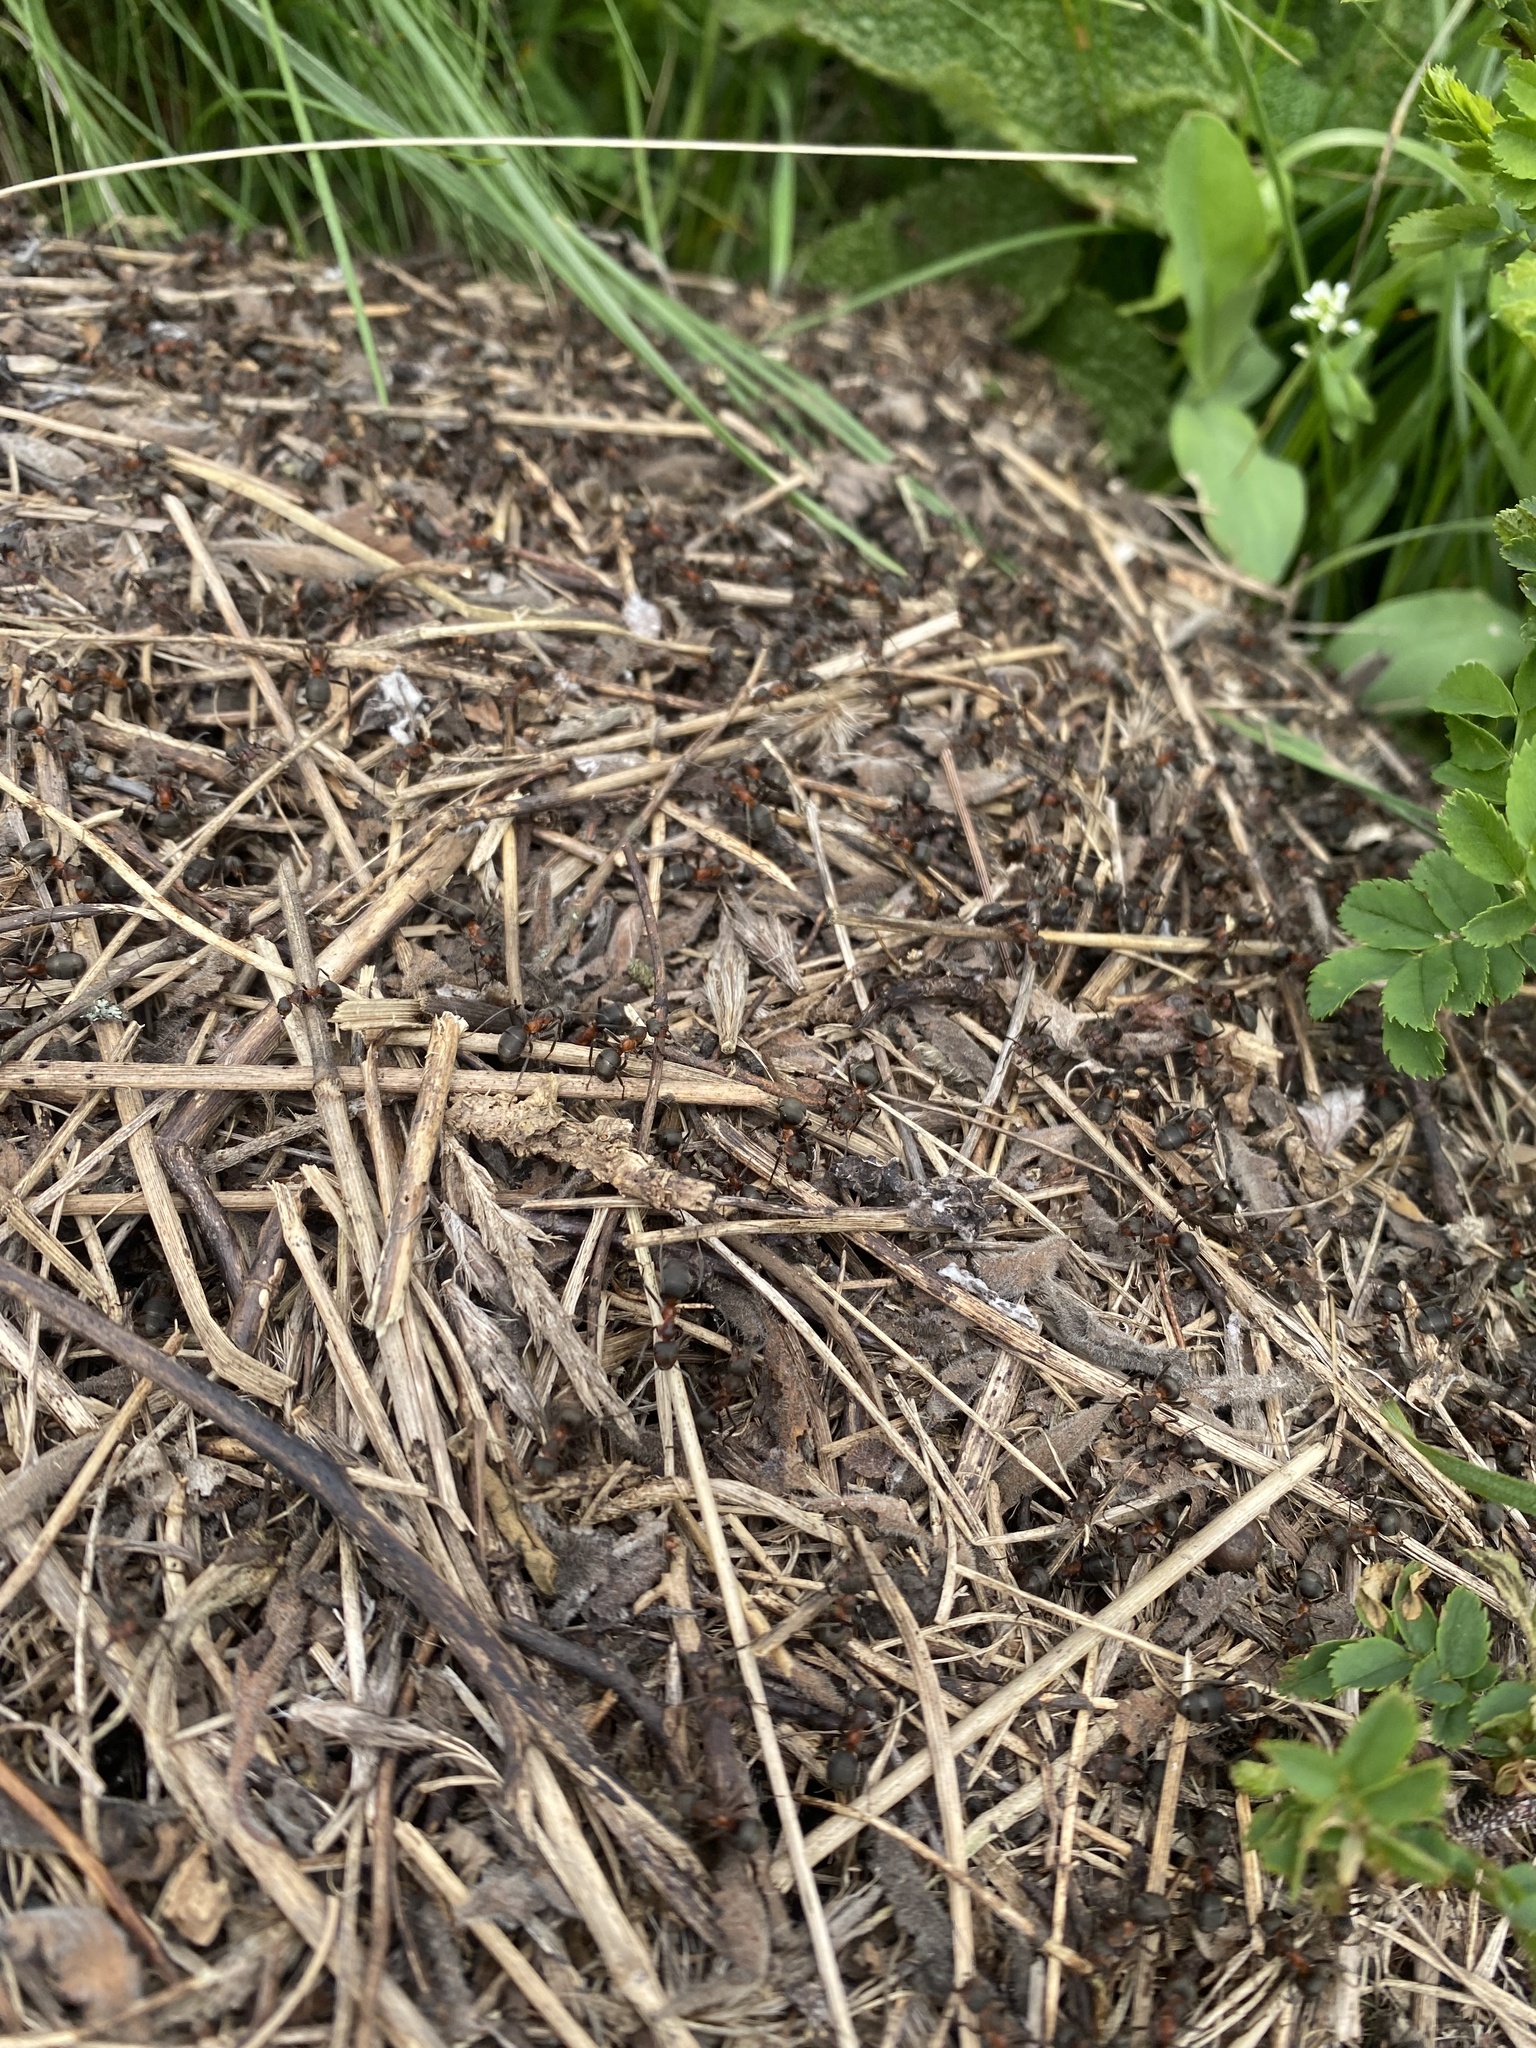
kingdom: Animalia
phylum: Arthropoda
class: Insecta
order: Hymenoptera
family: Formicidae
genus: Formica
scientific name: Formica pratensis
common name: European red wood ant
